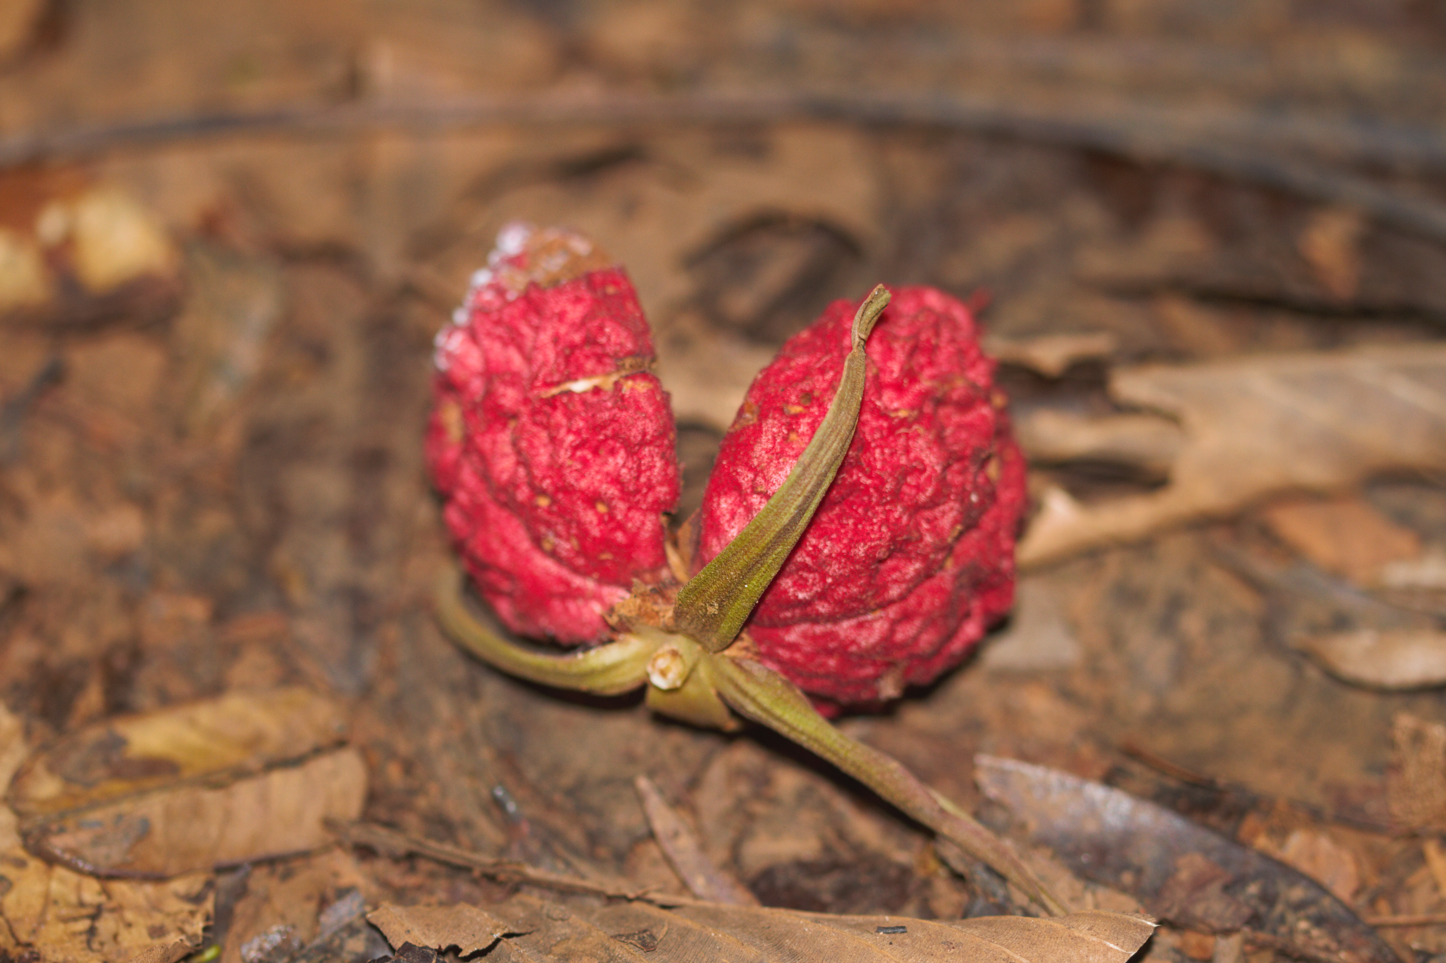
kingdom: Plantae
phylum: Tracheophyta
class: Magnoliopsida
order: Malpighiales
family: Salicaceae
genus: Ryania
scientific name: Ryania speciosa
